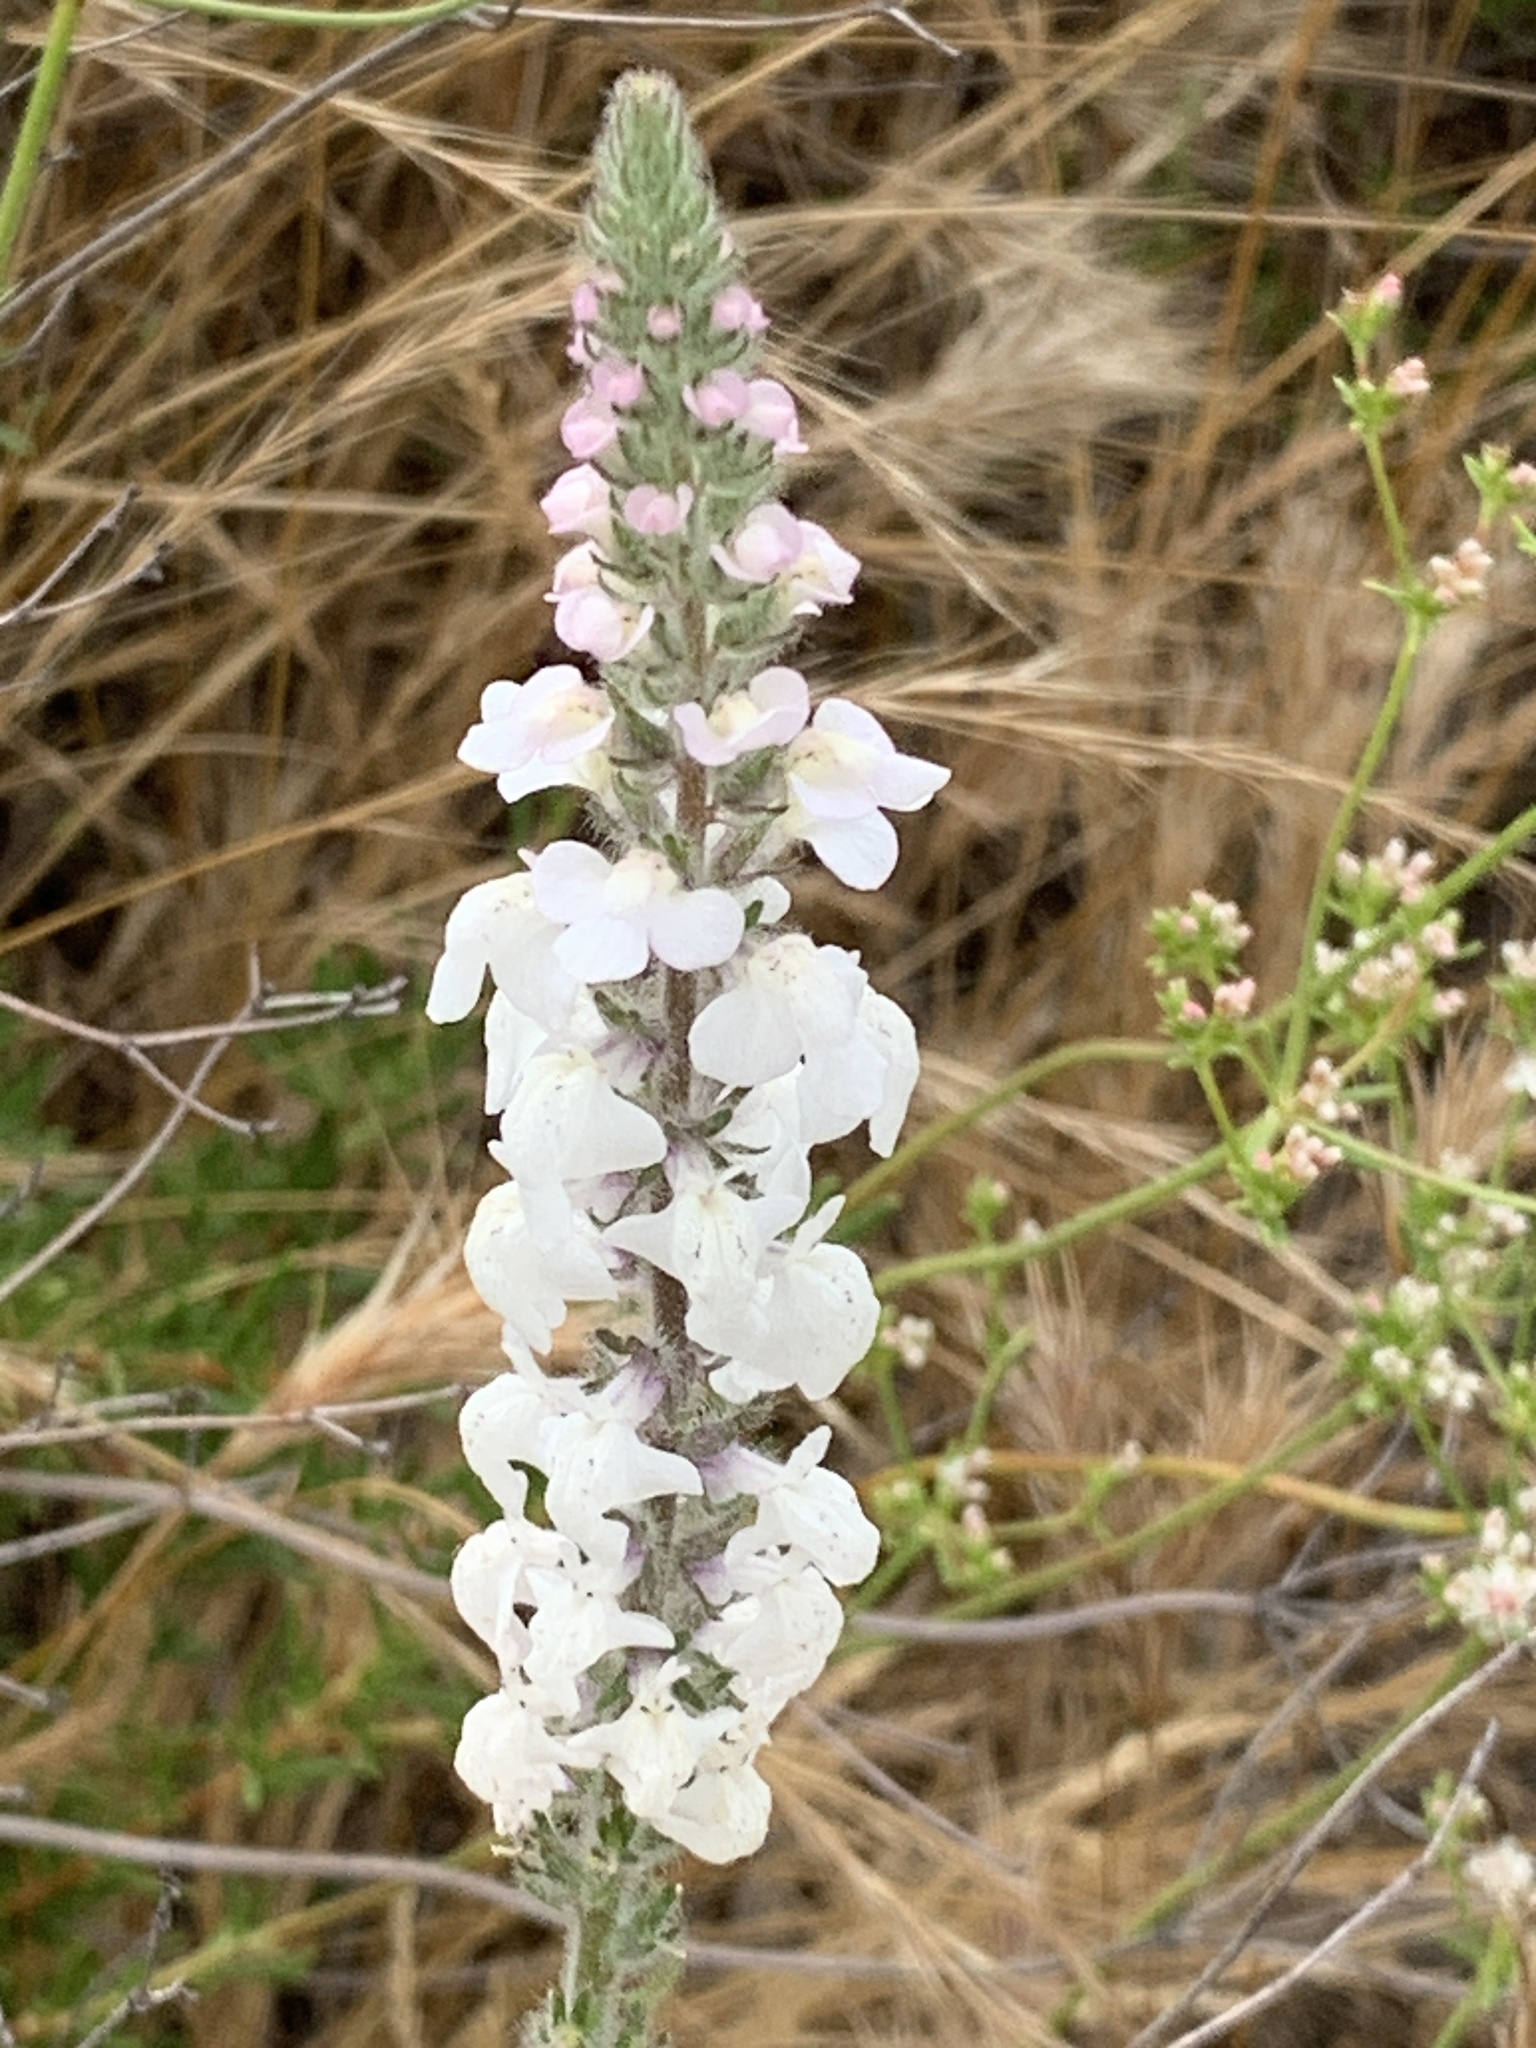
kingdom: Plantae
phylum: Tracheophyta
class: Magnoliopsida
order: Lamiales
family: Plantaginaceae
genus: Sairocarpus
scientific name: Sairocarpus coulterianus
